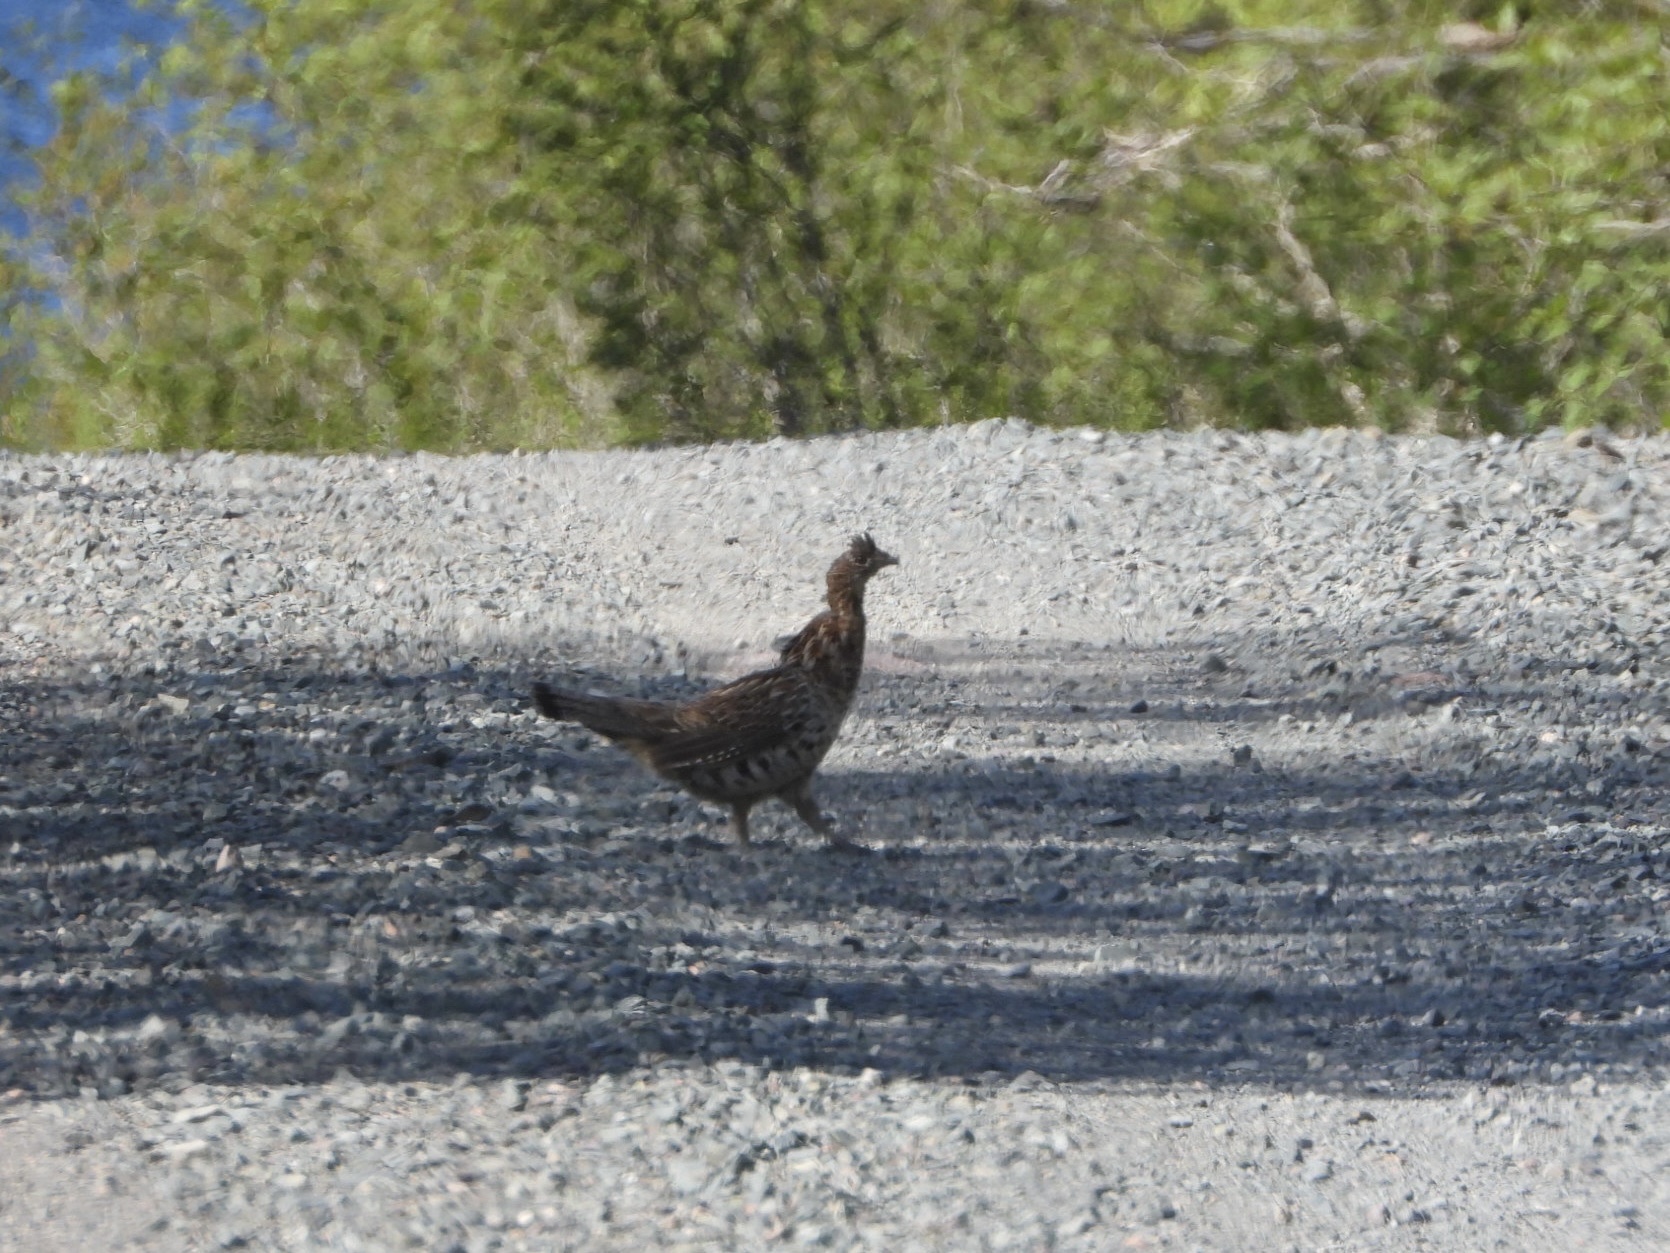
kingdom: Animalia
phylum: Chordata
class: Aves
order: Galliformes
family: Phasianidae
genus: Bonasa
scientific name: Bonasa umbellus
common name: Ruffed grouse
